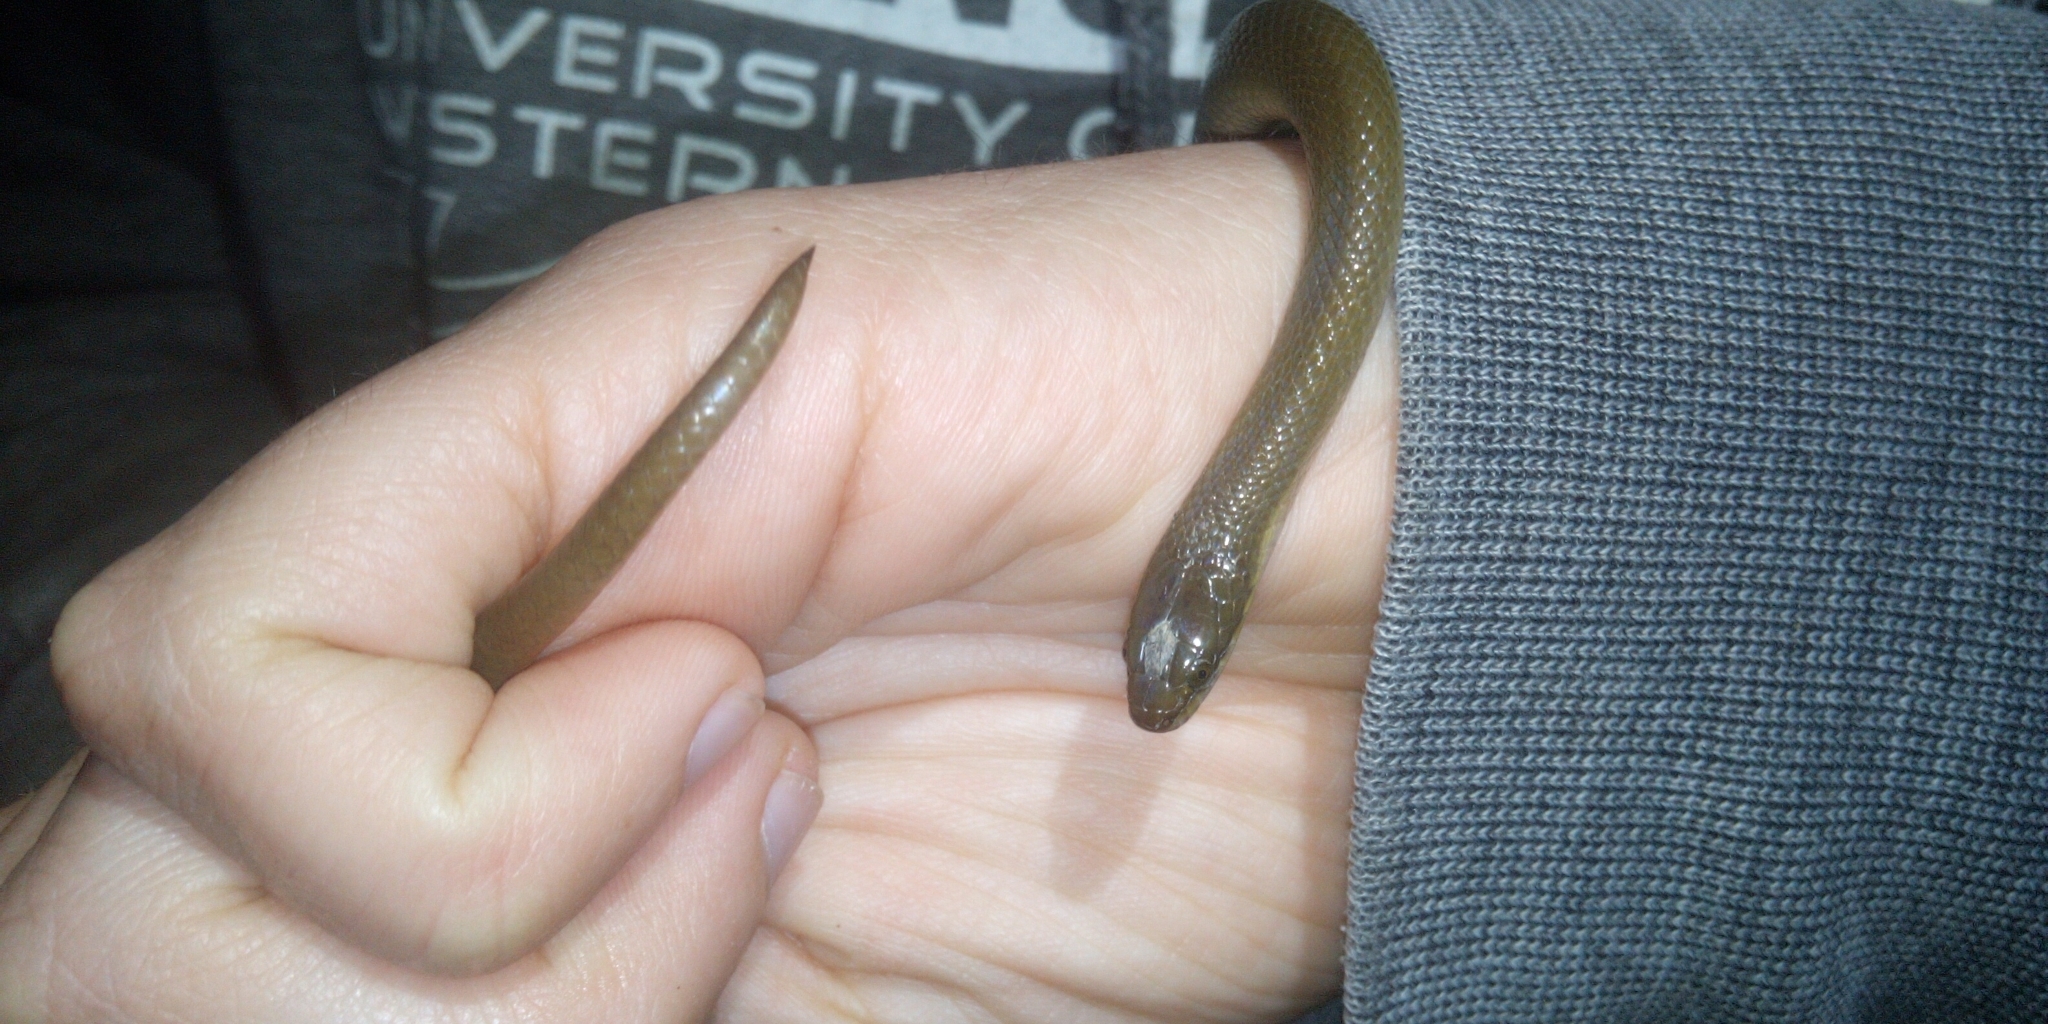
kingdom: Animalia
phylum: Chordata
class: Squamata
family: Lamprophiidae
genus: Lycodonomorphus
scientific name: Lycodonomorphus rufulus
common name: Brown water snake
